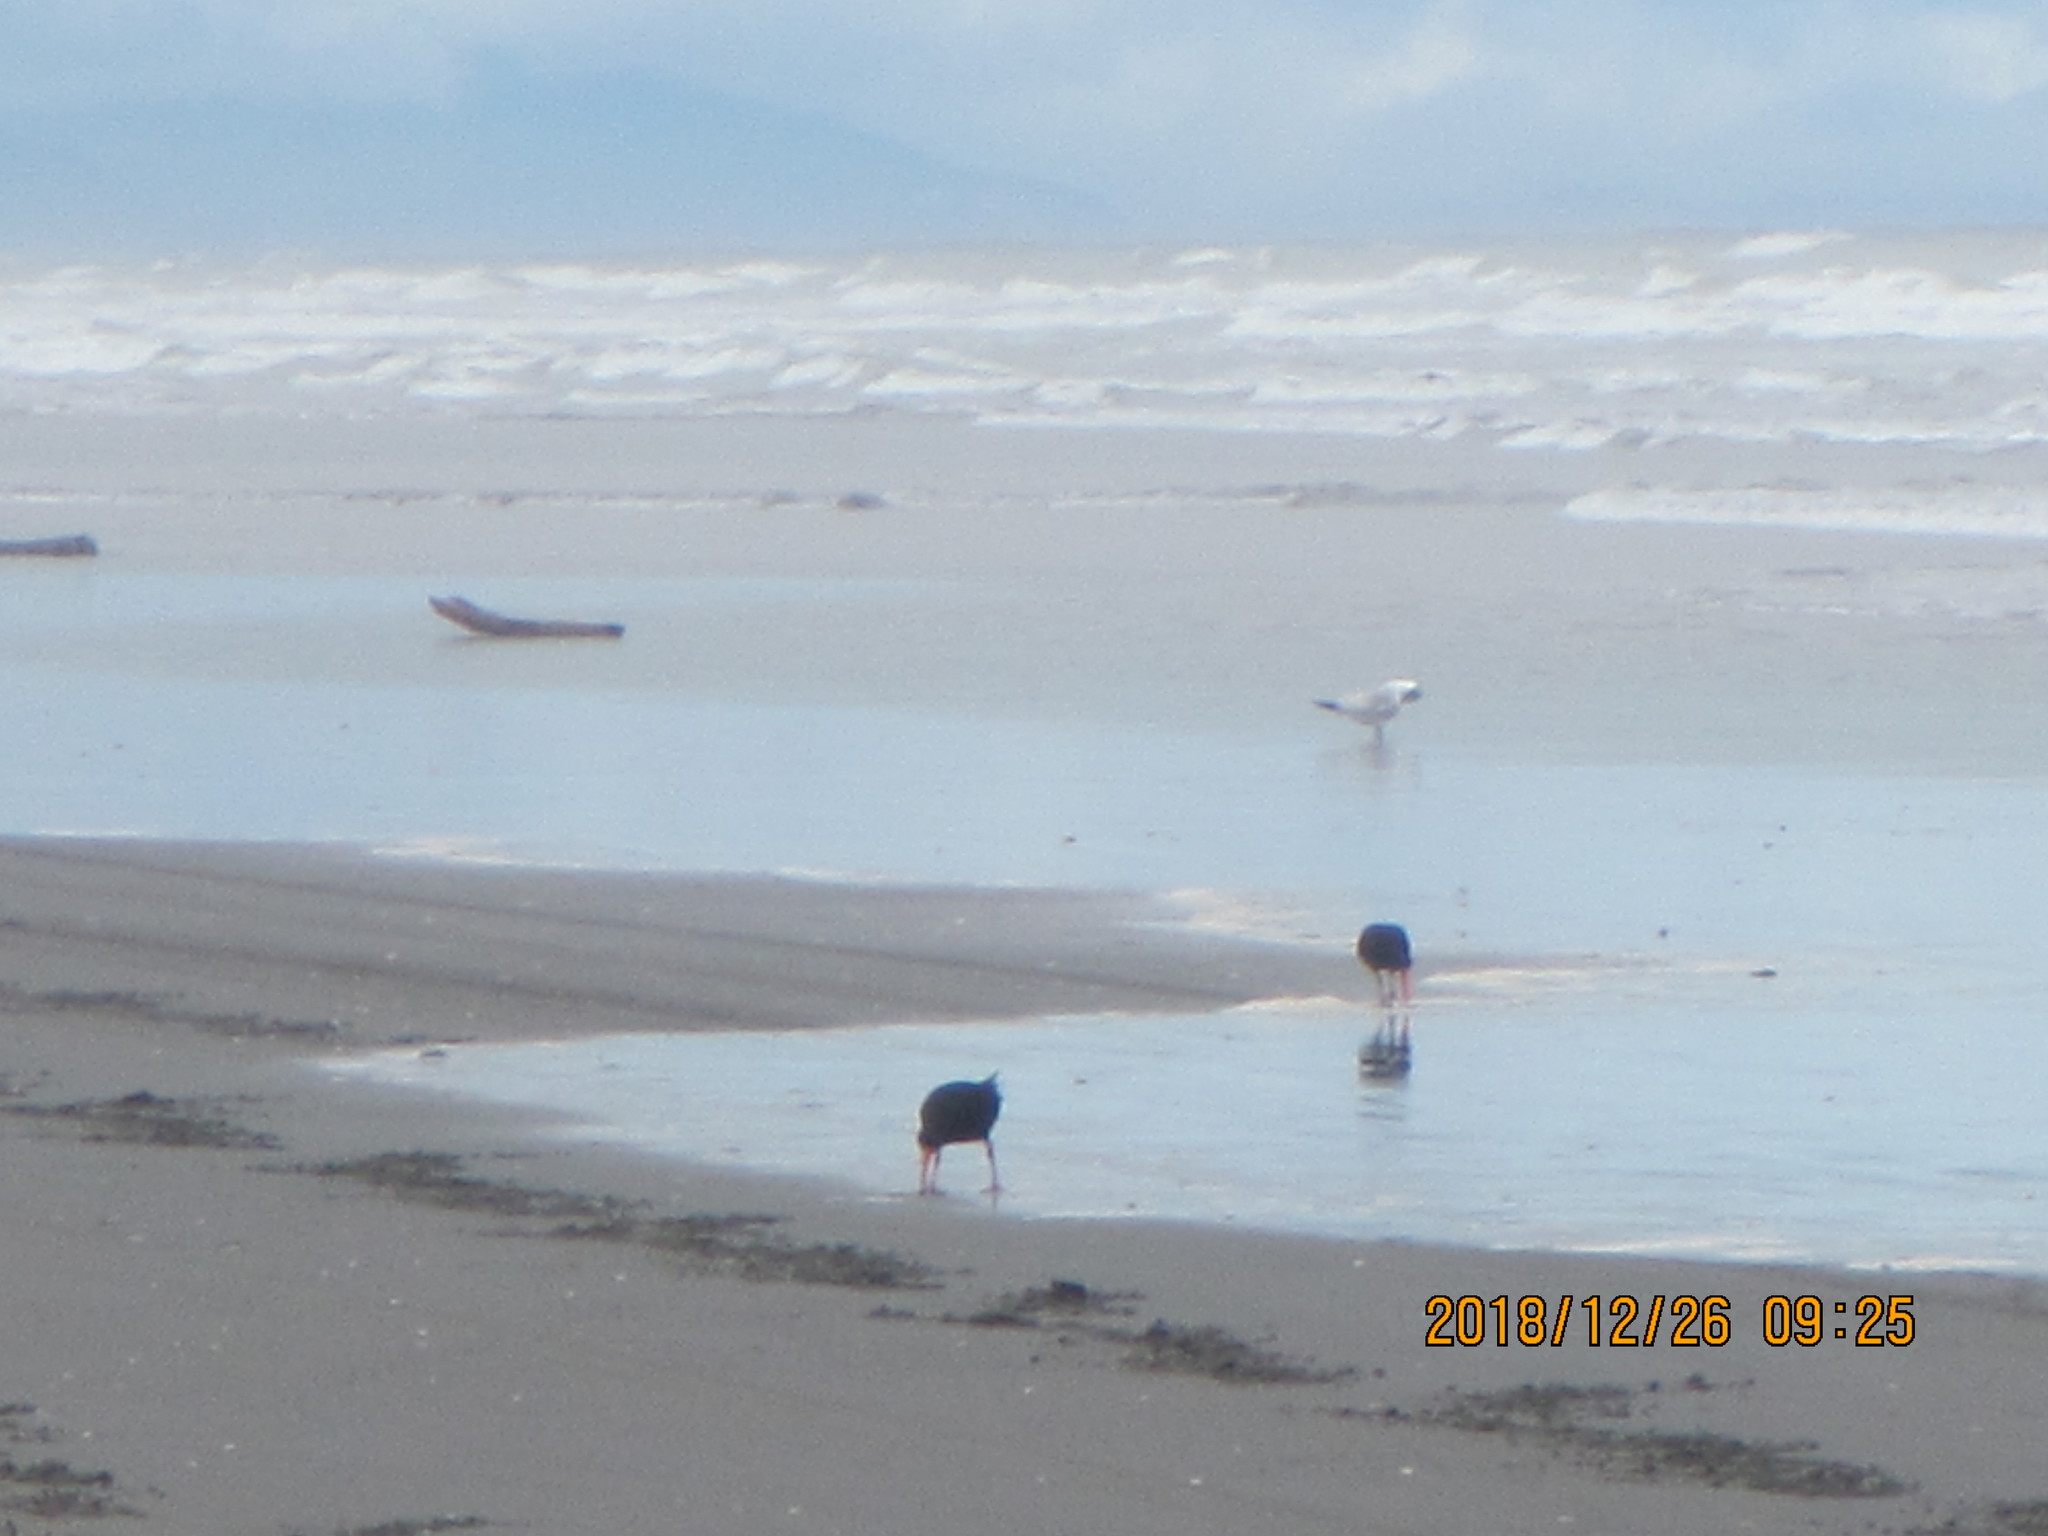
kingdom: Animalia
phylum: Chordata
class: Aves
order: Charadriiformes
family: Haematopodidae
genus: Haematopus
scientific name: Haematopus unicolor
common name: Variable oystercatcher
